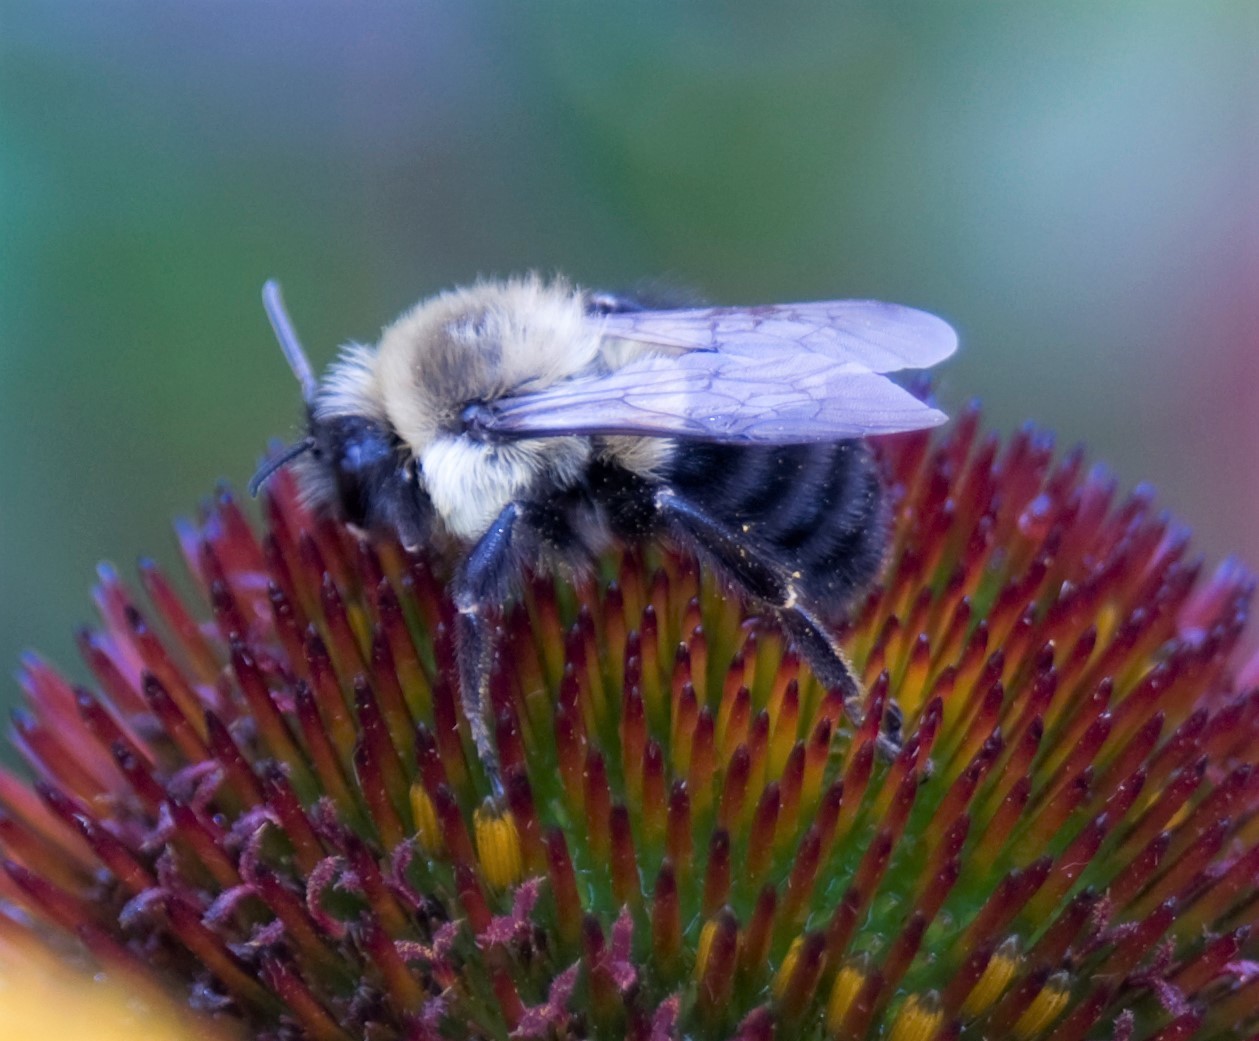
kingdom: Animalia
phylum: Arthropoda
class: Insecta
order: Hymenoptera
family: Apidae
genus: Bombus
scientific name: Bombus impatiens
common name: Common eastern bumble bee
